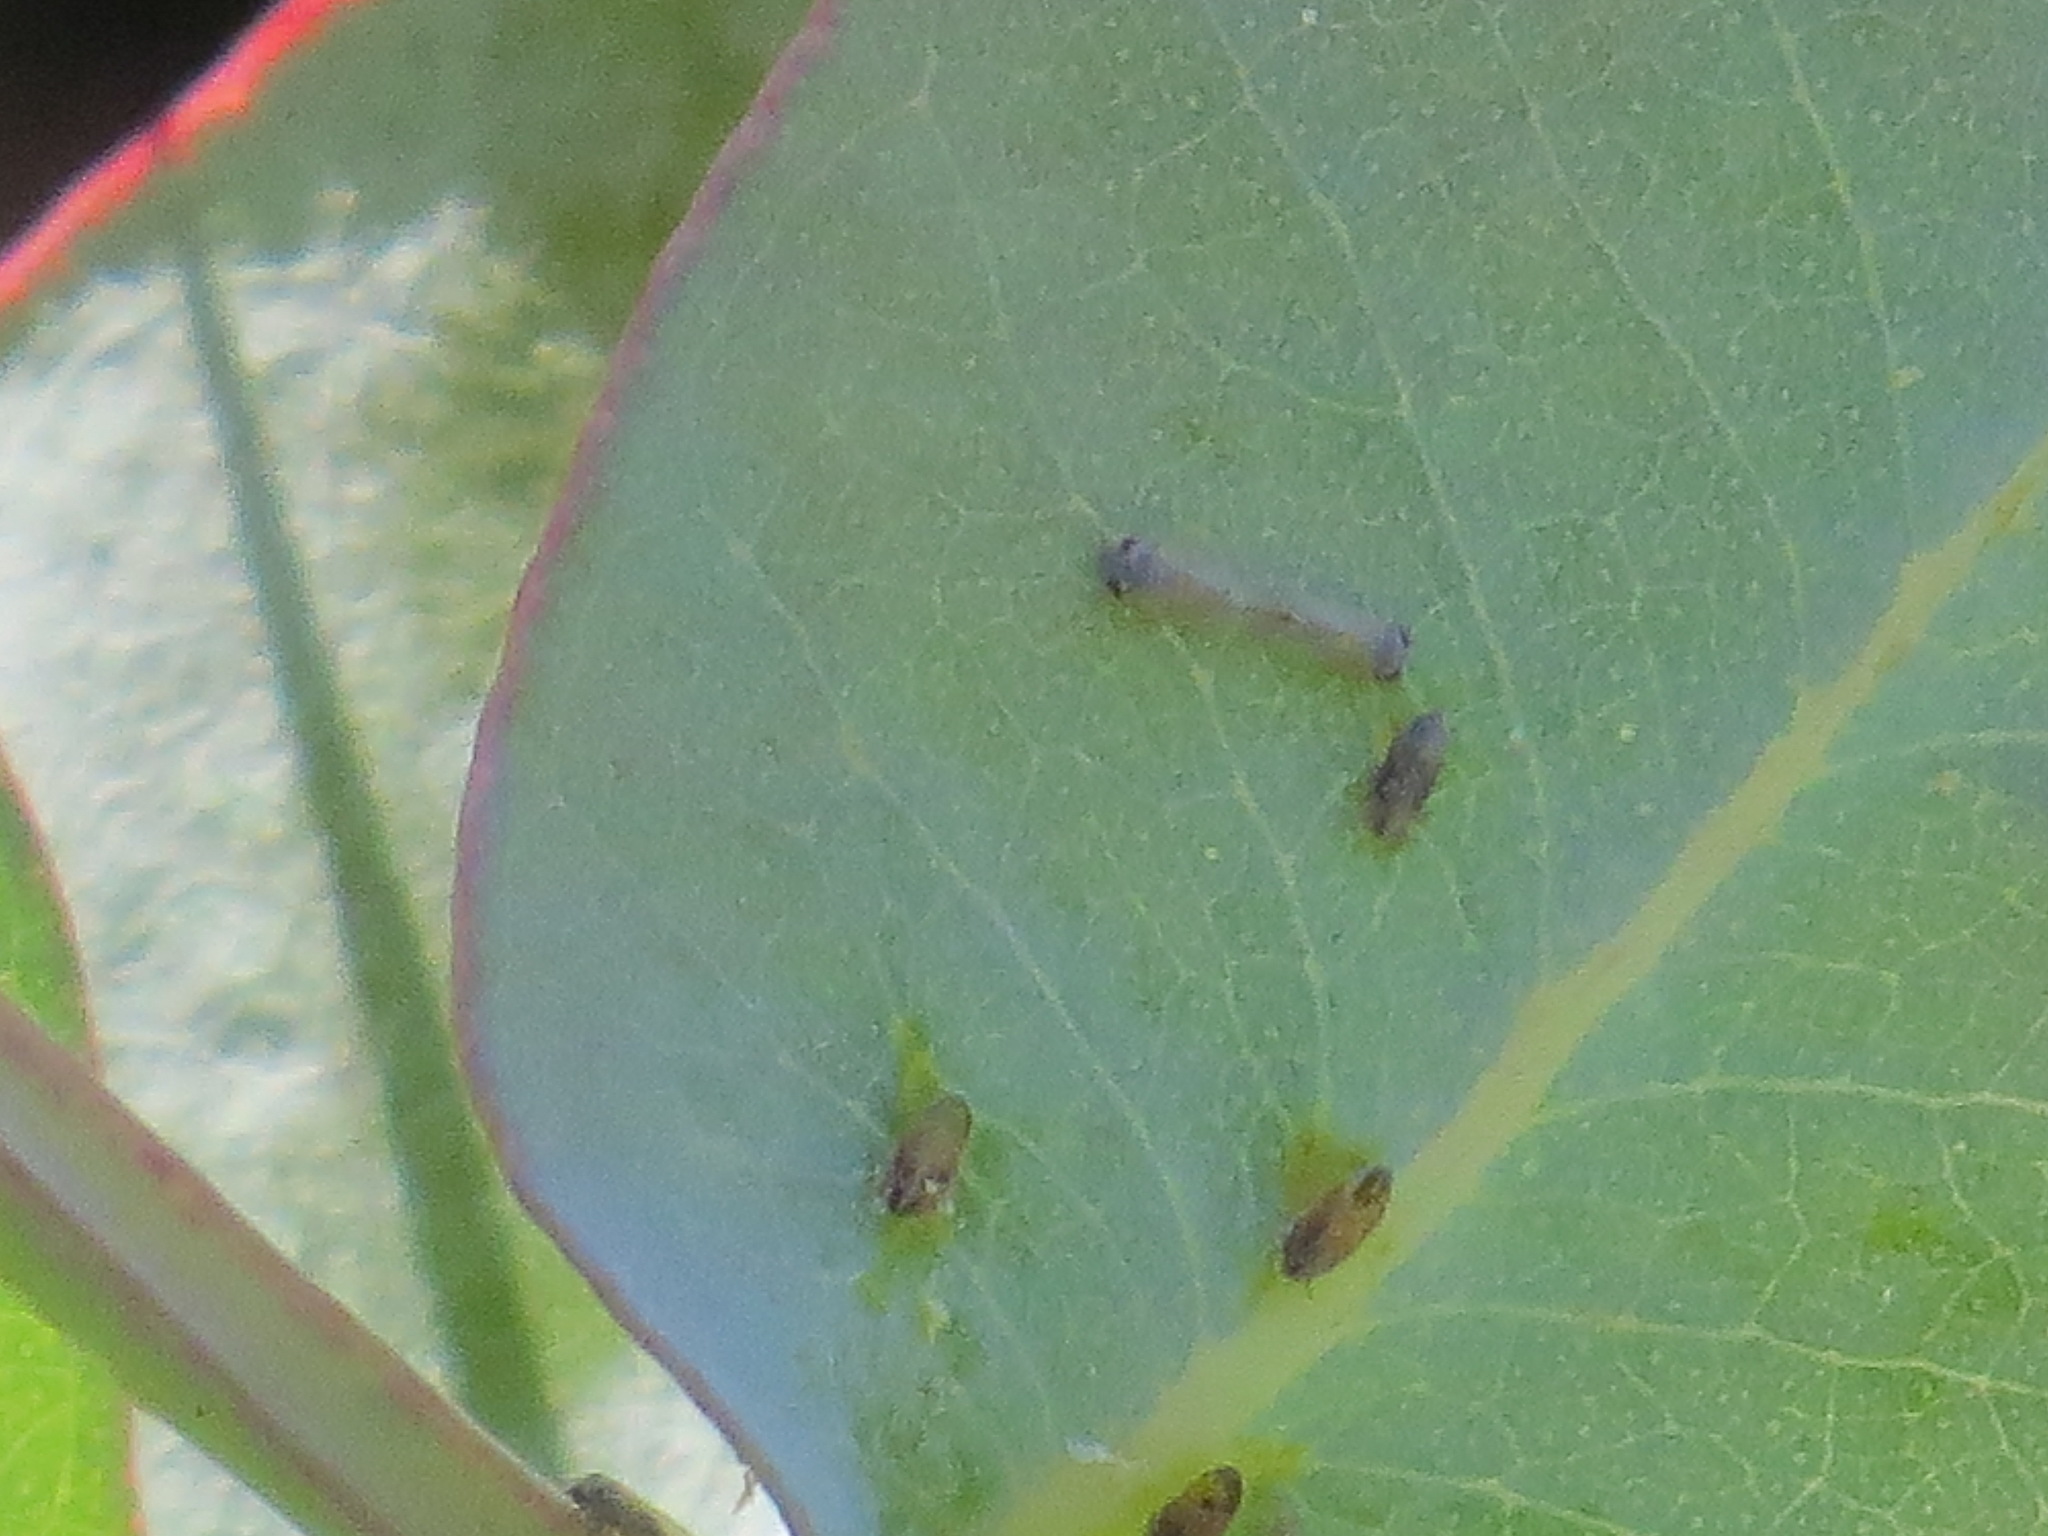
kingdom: Animalia
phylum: Arthropoda
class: Insecta
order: Hemiptera
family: Aphalaridae
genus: Ctenarytaina
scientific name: Ctenarytaina eucalypti
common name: Blue gum psyllid
